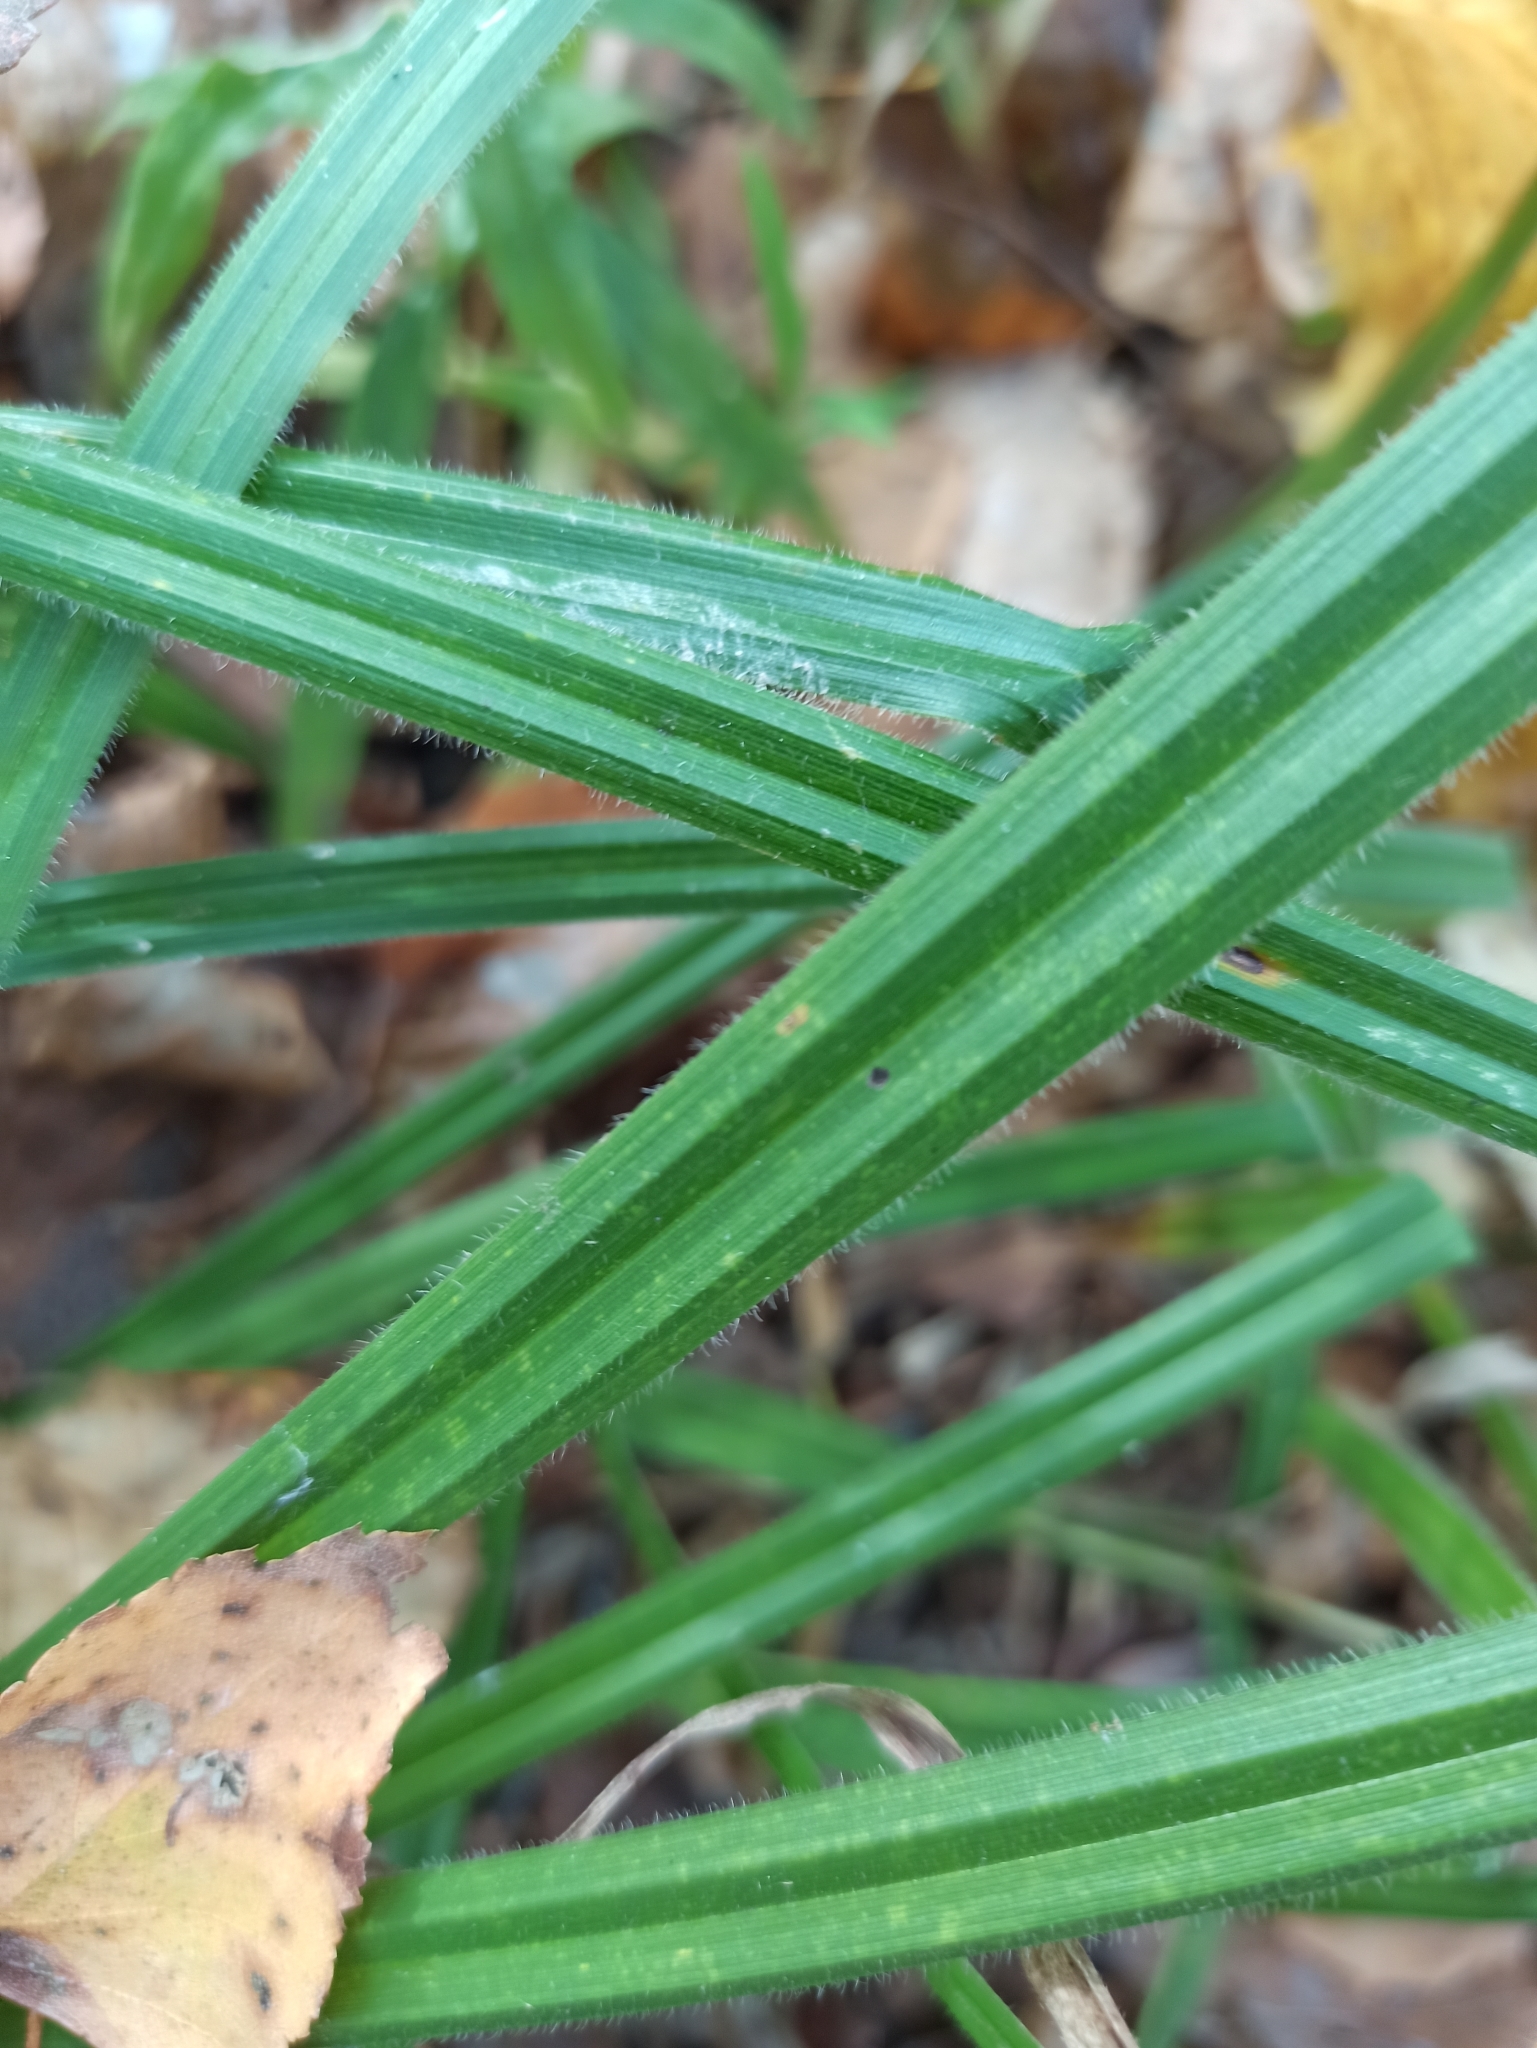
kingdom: Plantae
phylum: Tracheophyta
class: Liliopsida
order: Poales
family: Cyperaceae
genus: Carex
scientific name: Carex pilosa
